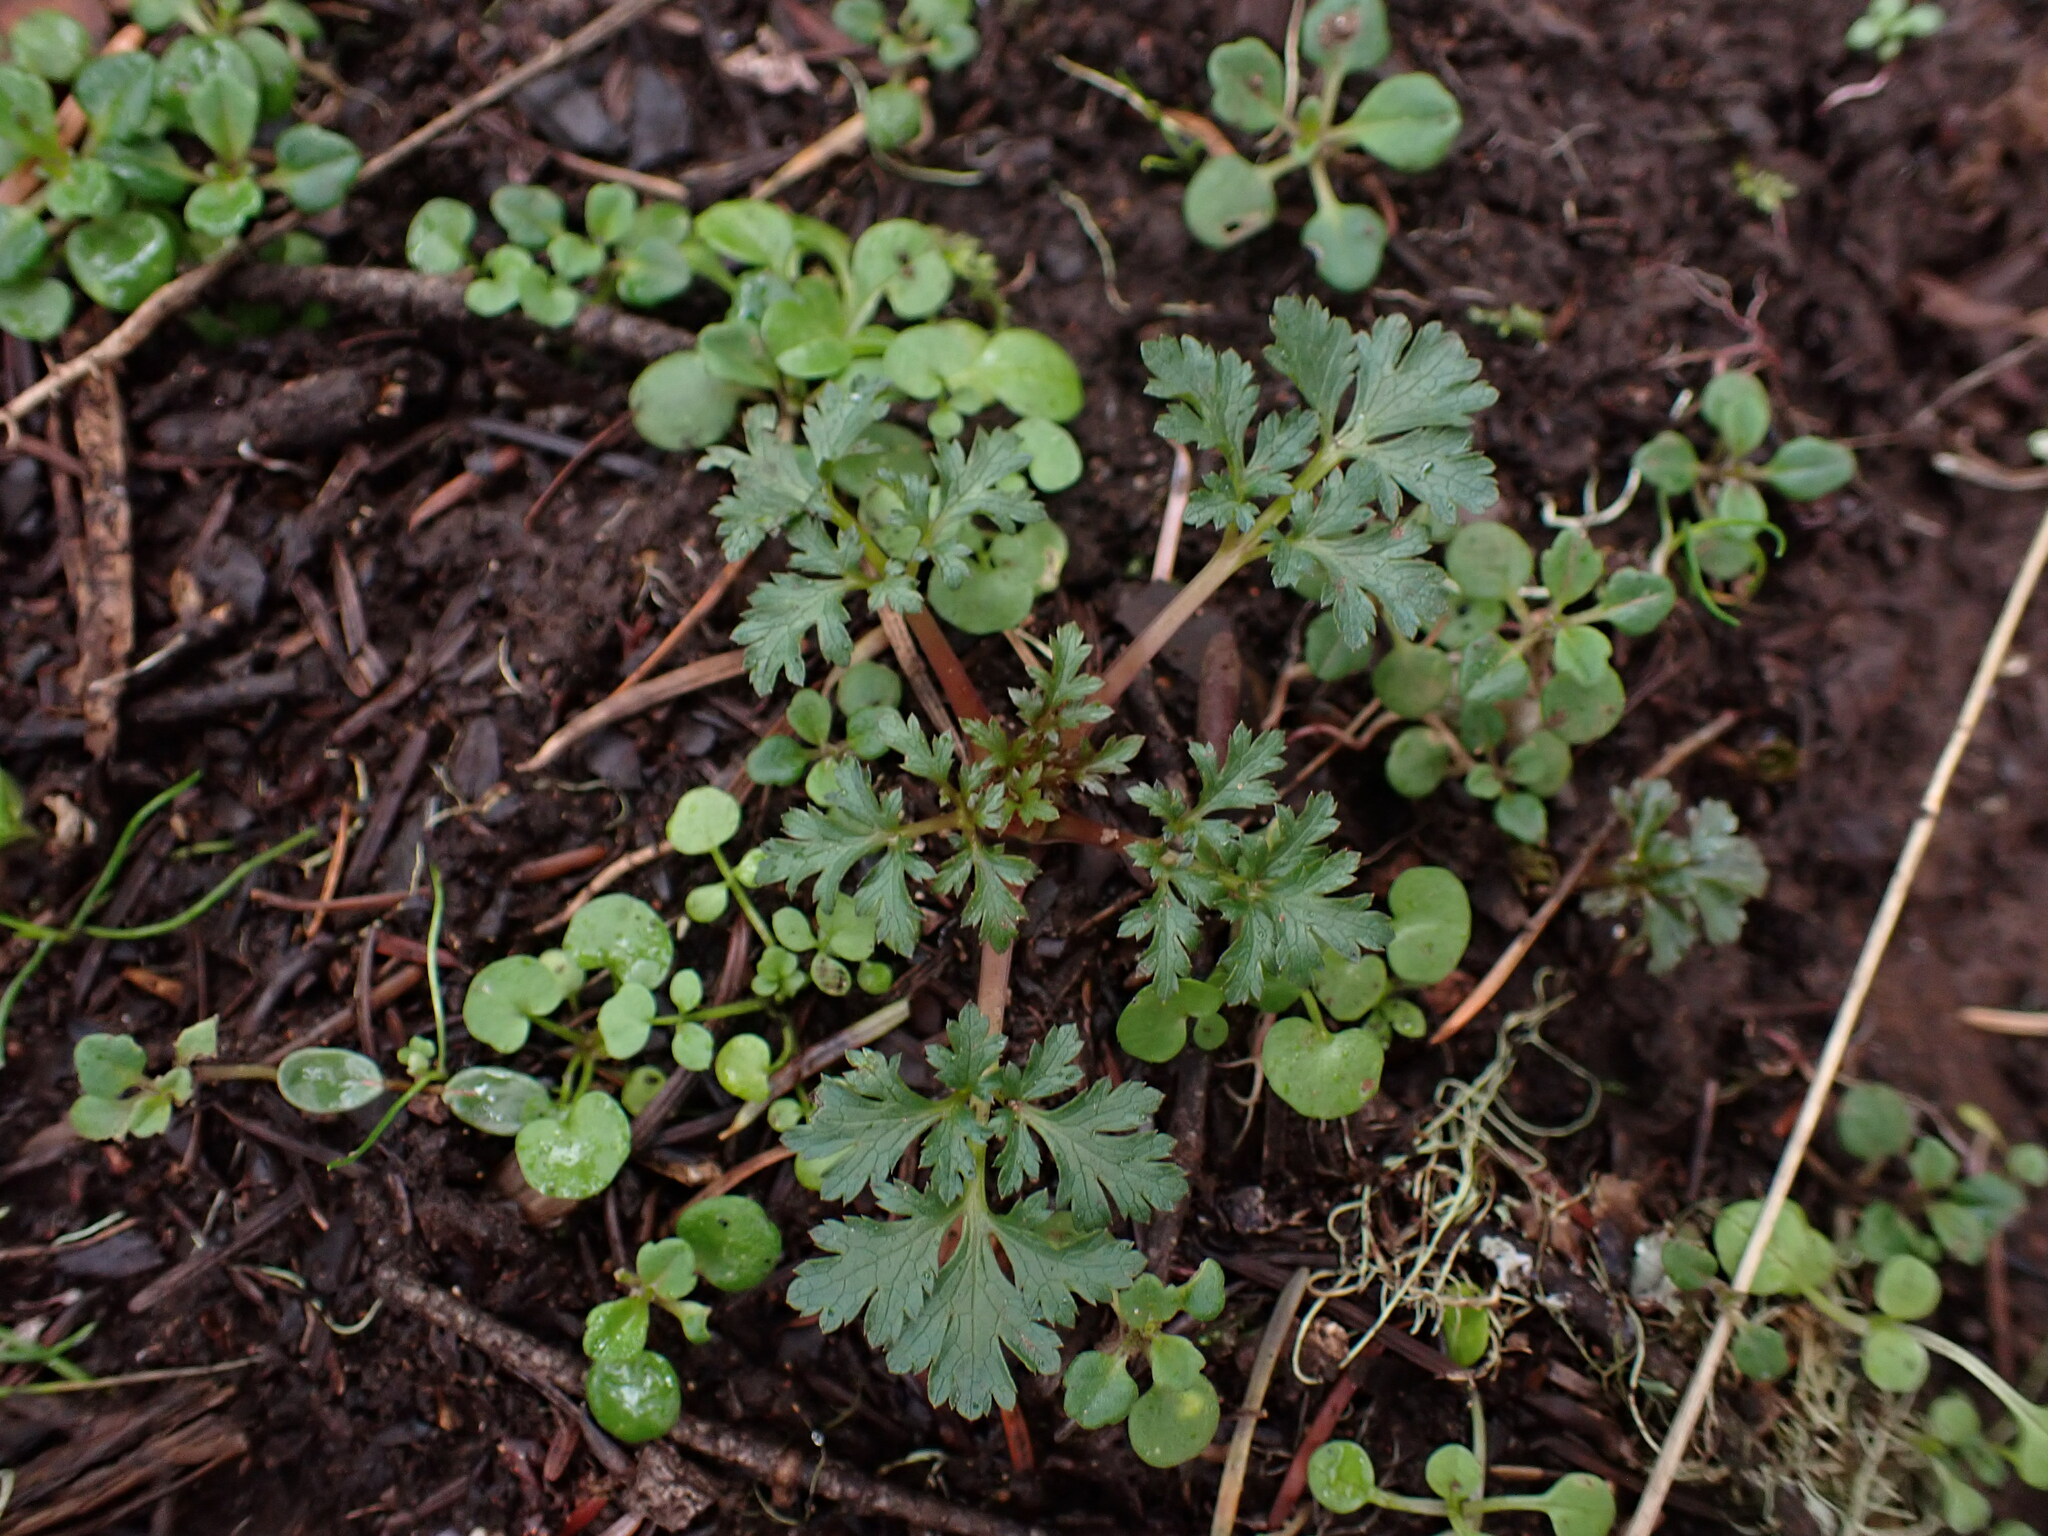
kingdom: Plantae
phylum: Tracheophyta
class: Magnoliopsida
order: Apiales
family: Apiaceae
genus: Sanicula
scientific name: Sanicula graveolens
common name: Sierra sanicle
